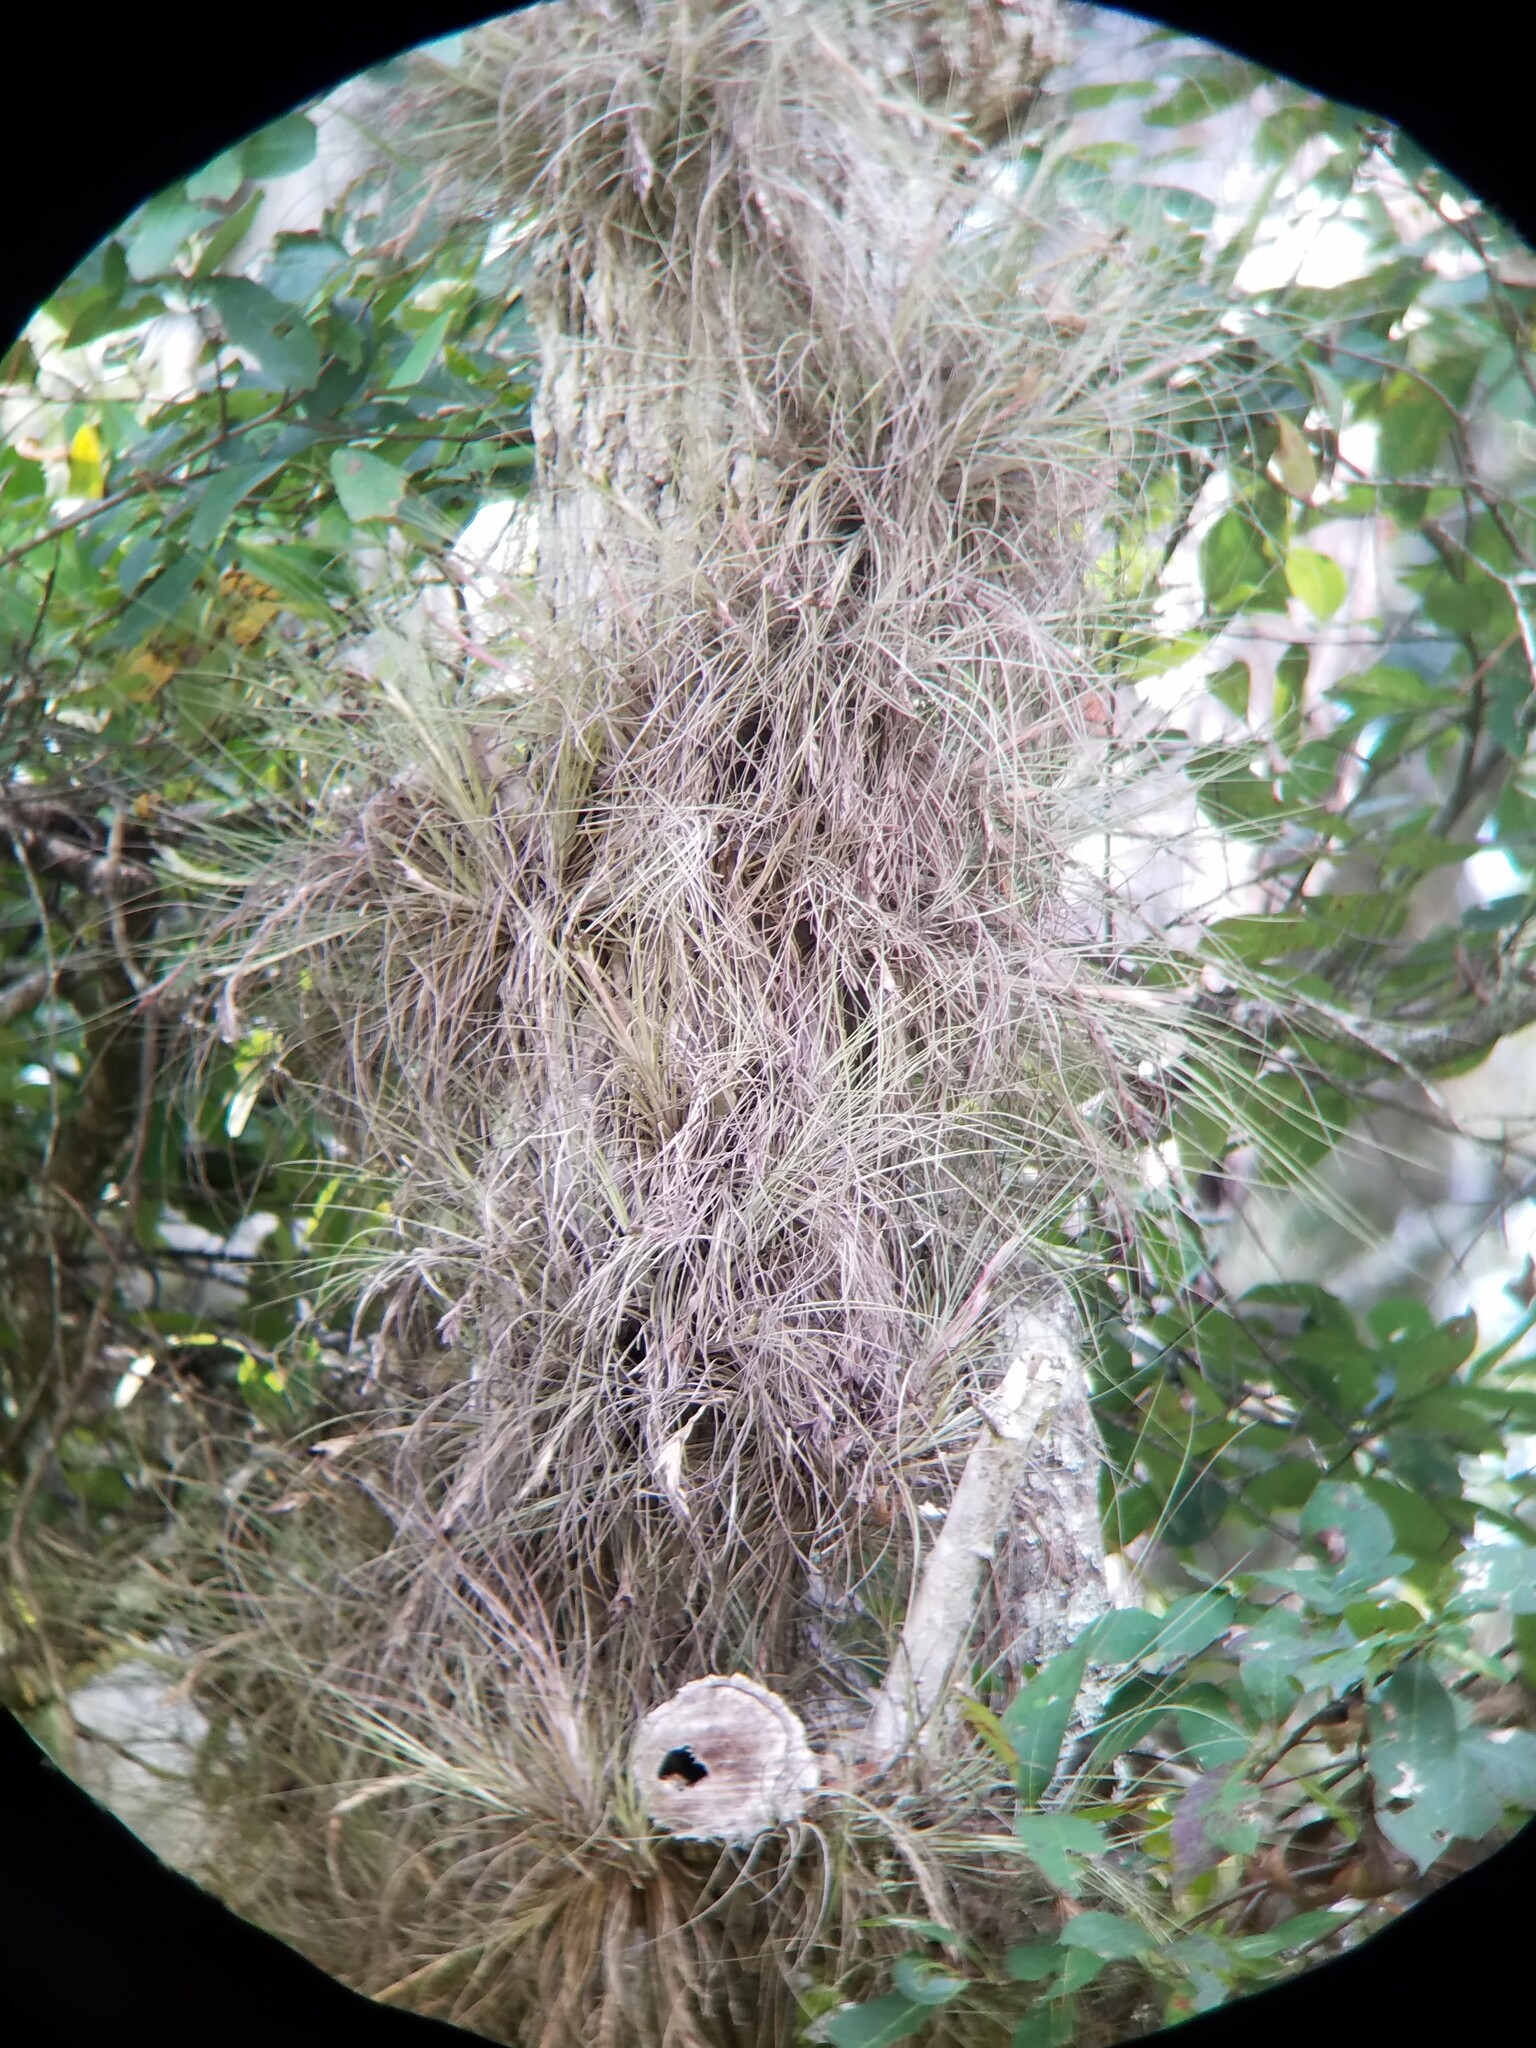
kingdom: Plantae
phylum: Tracheophyta
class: Liliopsida
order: Poales
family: Bromeliaceae
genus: Tillandsia
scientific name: Tillandsia bartramii
